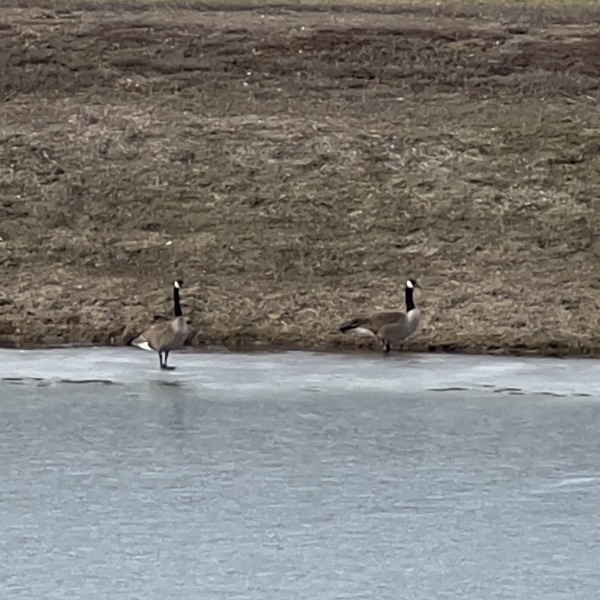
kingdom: Animalia
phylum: Chordata
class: Aves
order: Anseriformes
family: Anatidae
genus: Branta
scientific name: Branta canadensis
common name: Canada goose
